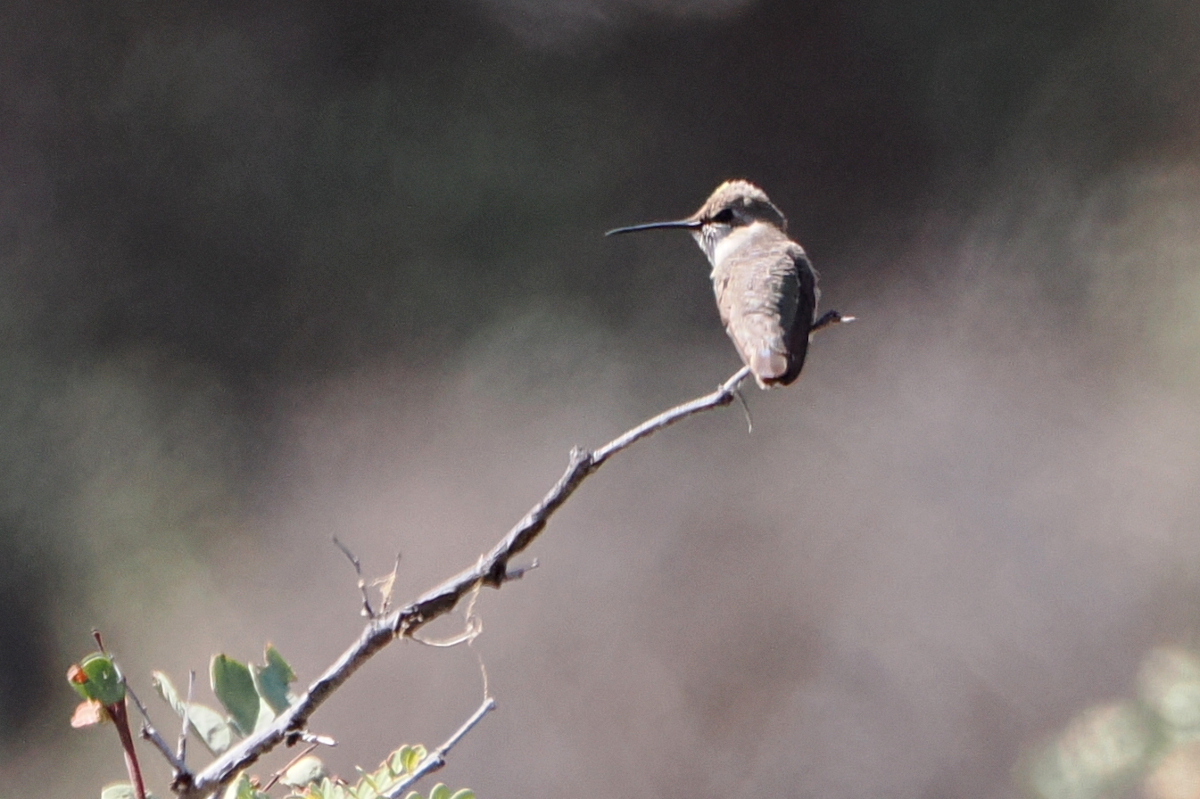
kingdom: Animalia
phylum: Chordata
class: Aves
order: Apodiformes
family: Trochilidae
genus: Calypte
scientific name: Calypte costae
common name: Costa's hummingbird
